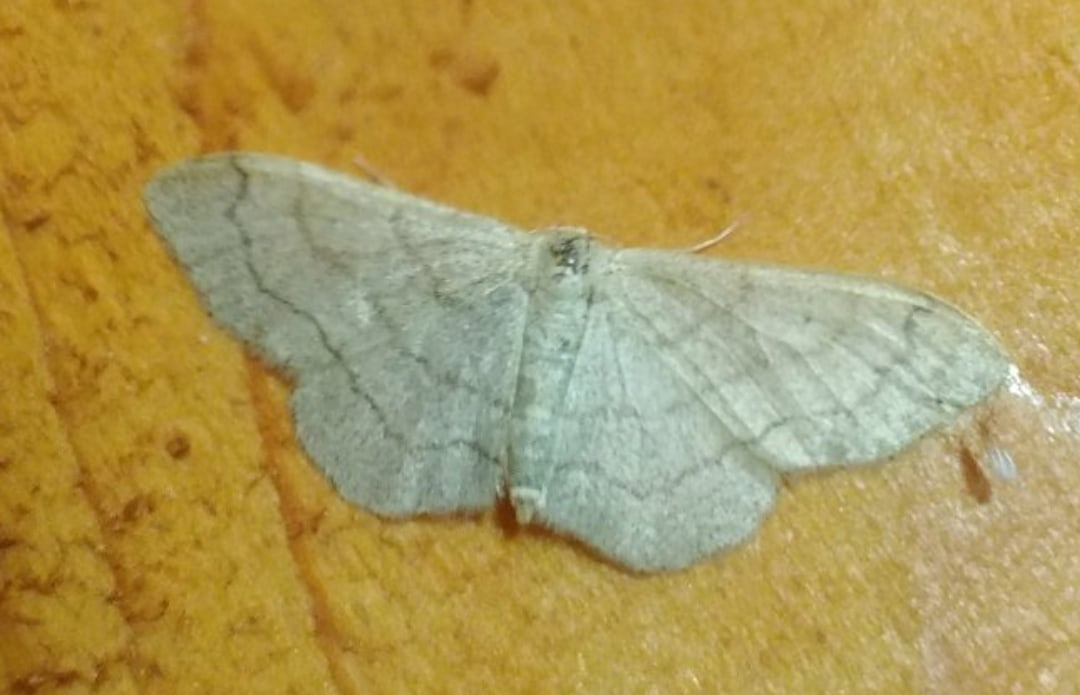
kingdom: Animalia
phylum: Arthropoda
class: Insecta
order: Lepidoptera
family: Geometridae
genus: Idaea
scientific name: Idaea aversata
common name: Riband wave
